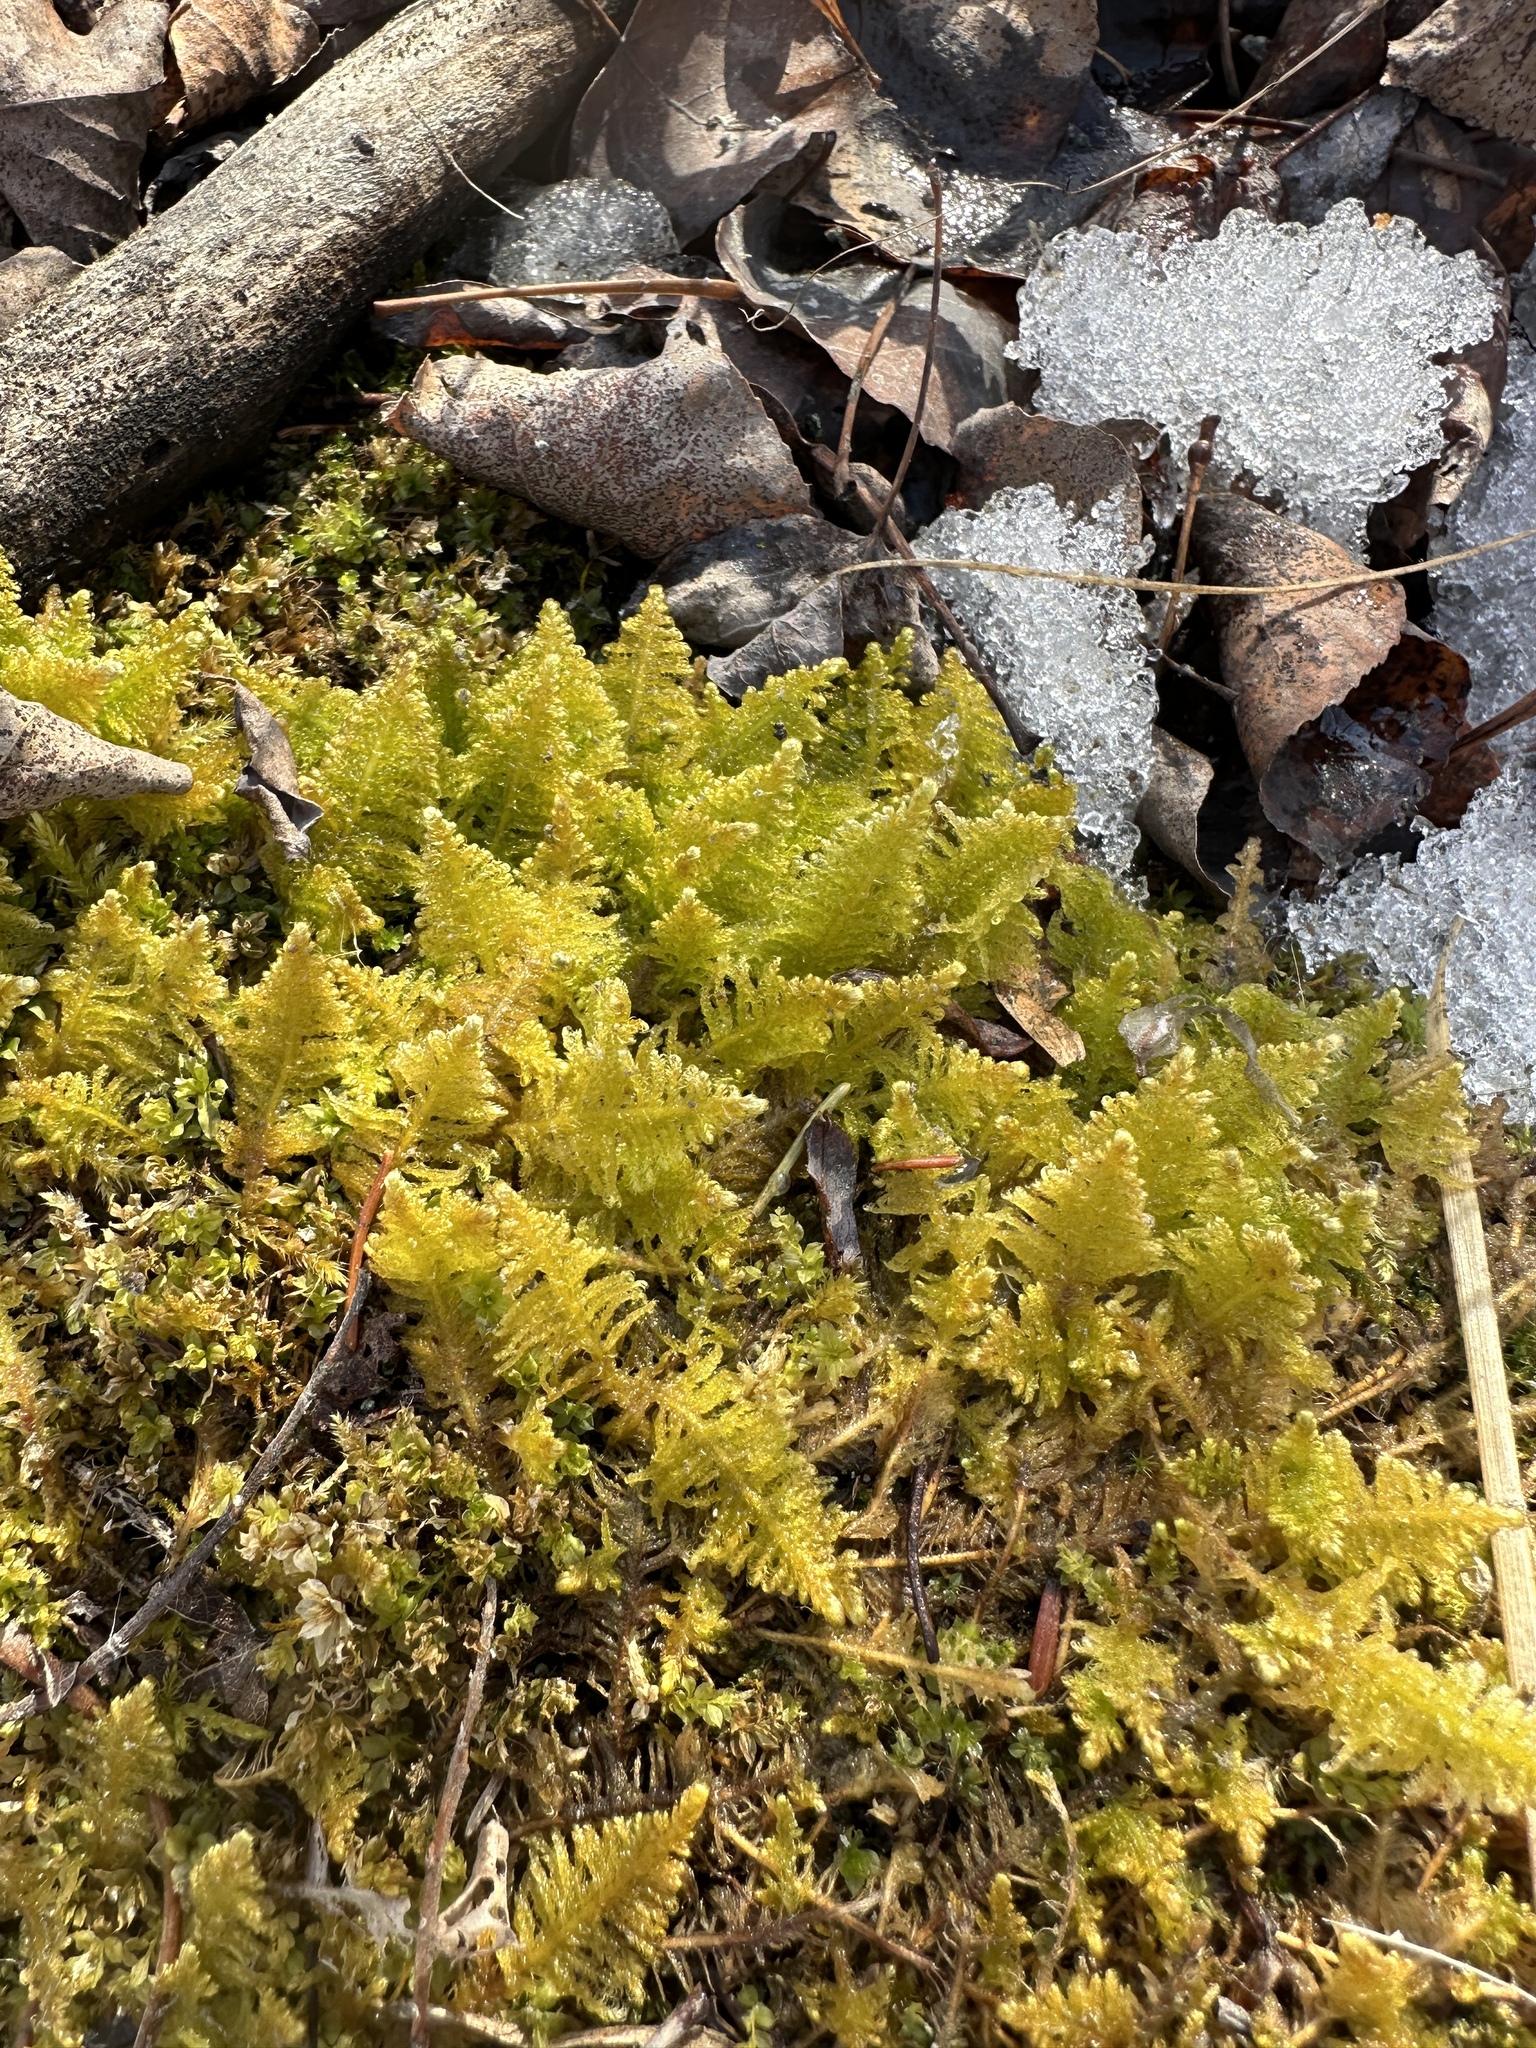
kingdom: Plantae
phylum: Bryophyta
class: Bryopsida
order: Hypnales
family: Pylaisiaceae
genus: Ptilium
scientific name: Ptilium crista-castrensis
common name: Knight's plume moss
